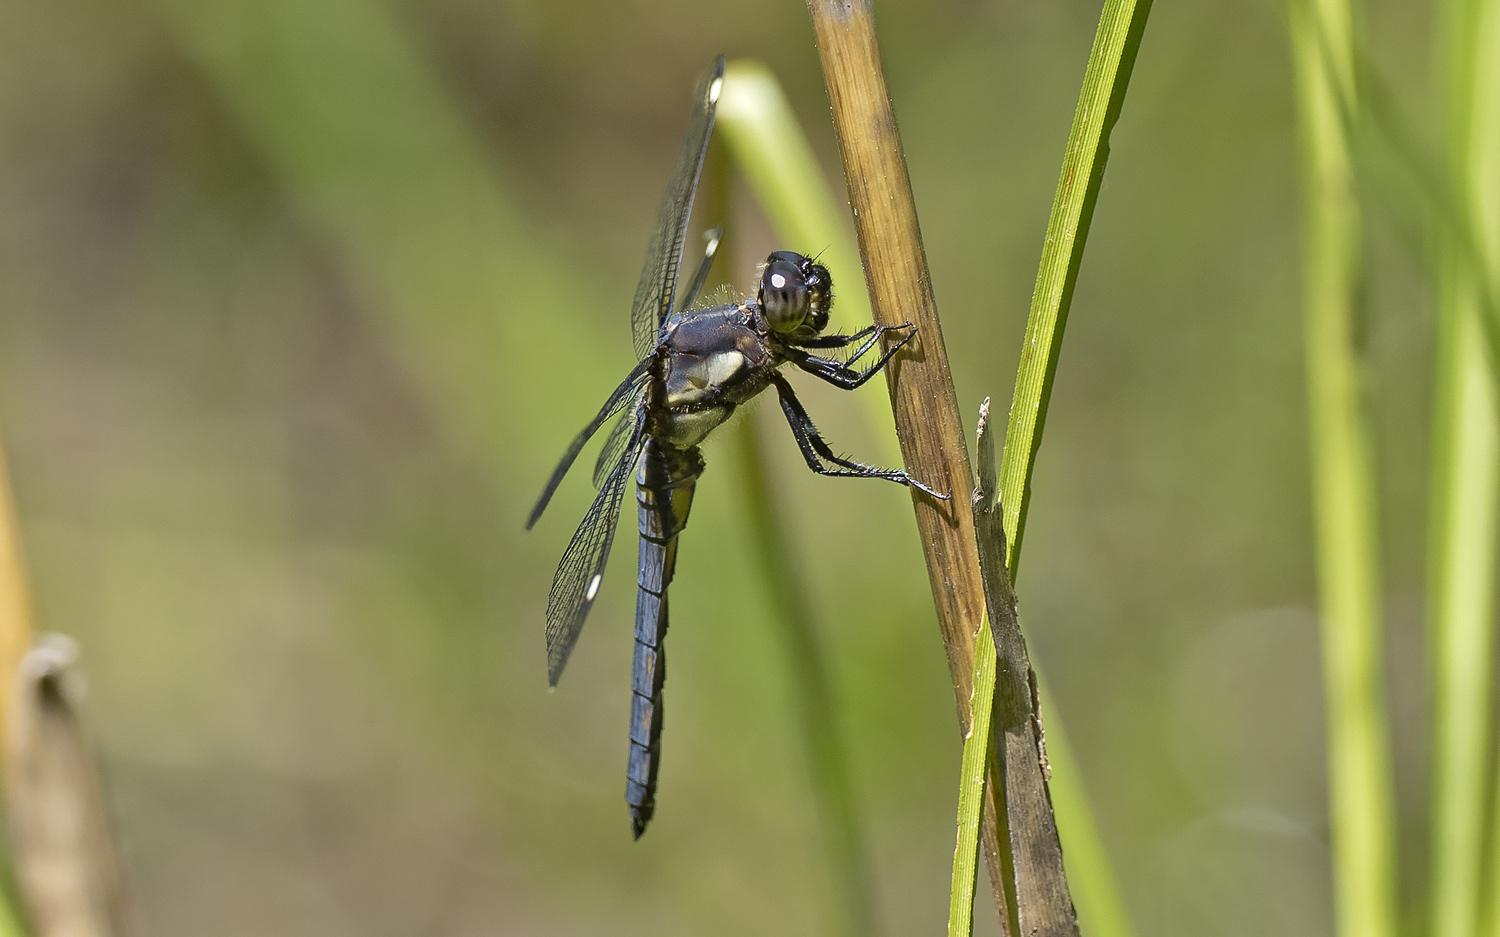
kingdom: Animalia
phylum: Arthropoda
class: Insecta
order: Odonata
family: Libellulidae
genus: Libellula
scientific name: Libellula cyanea
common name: Spangled skimmer
